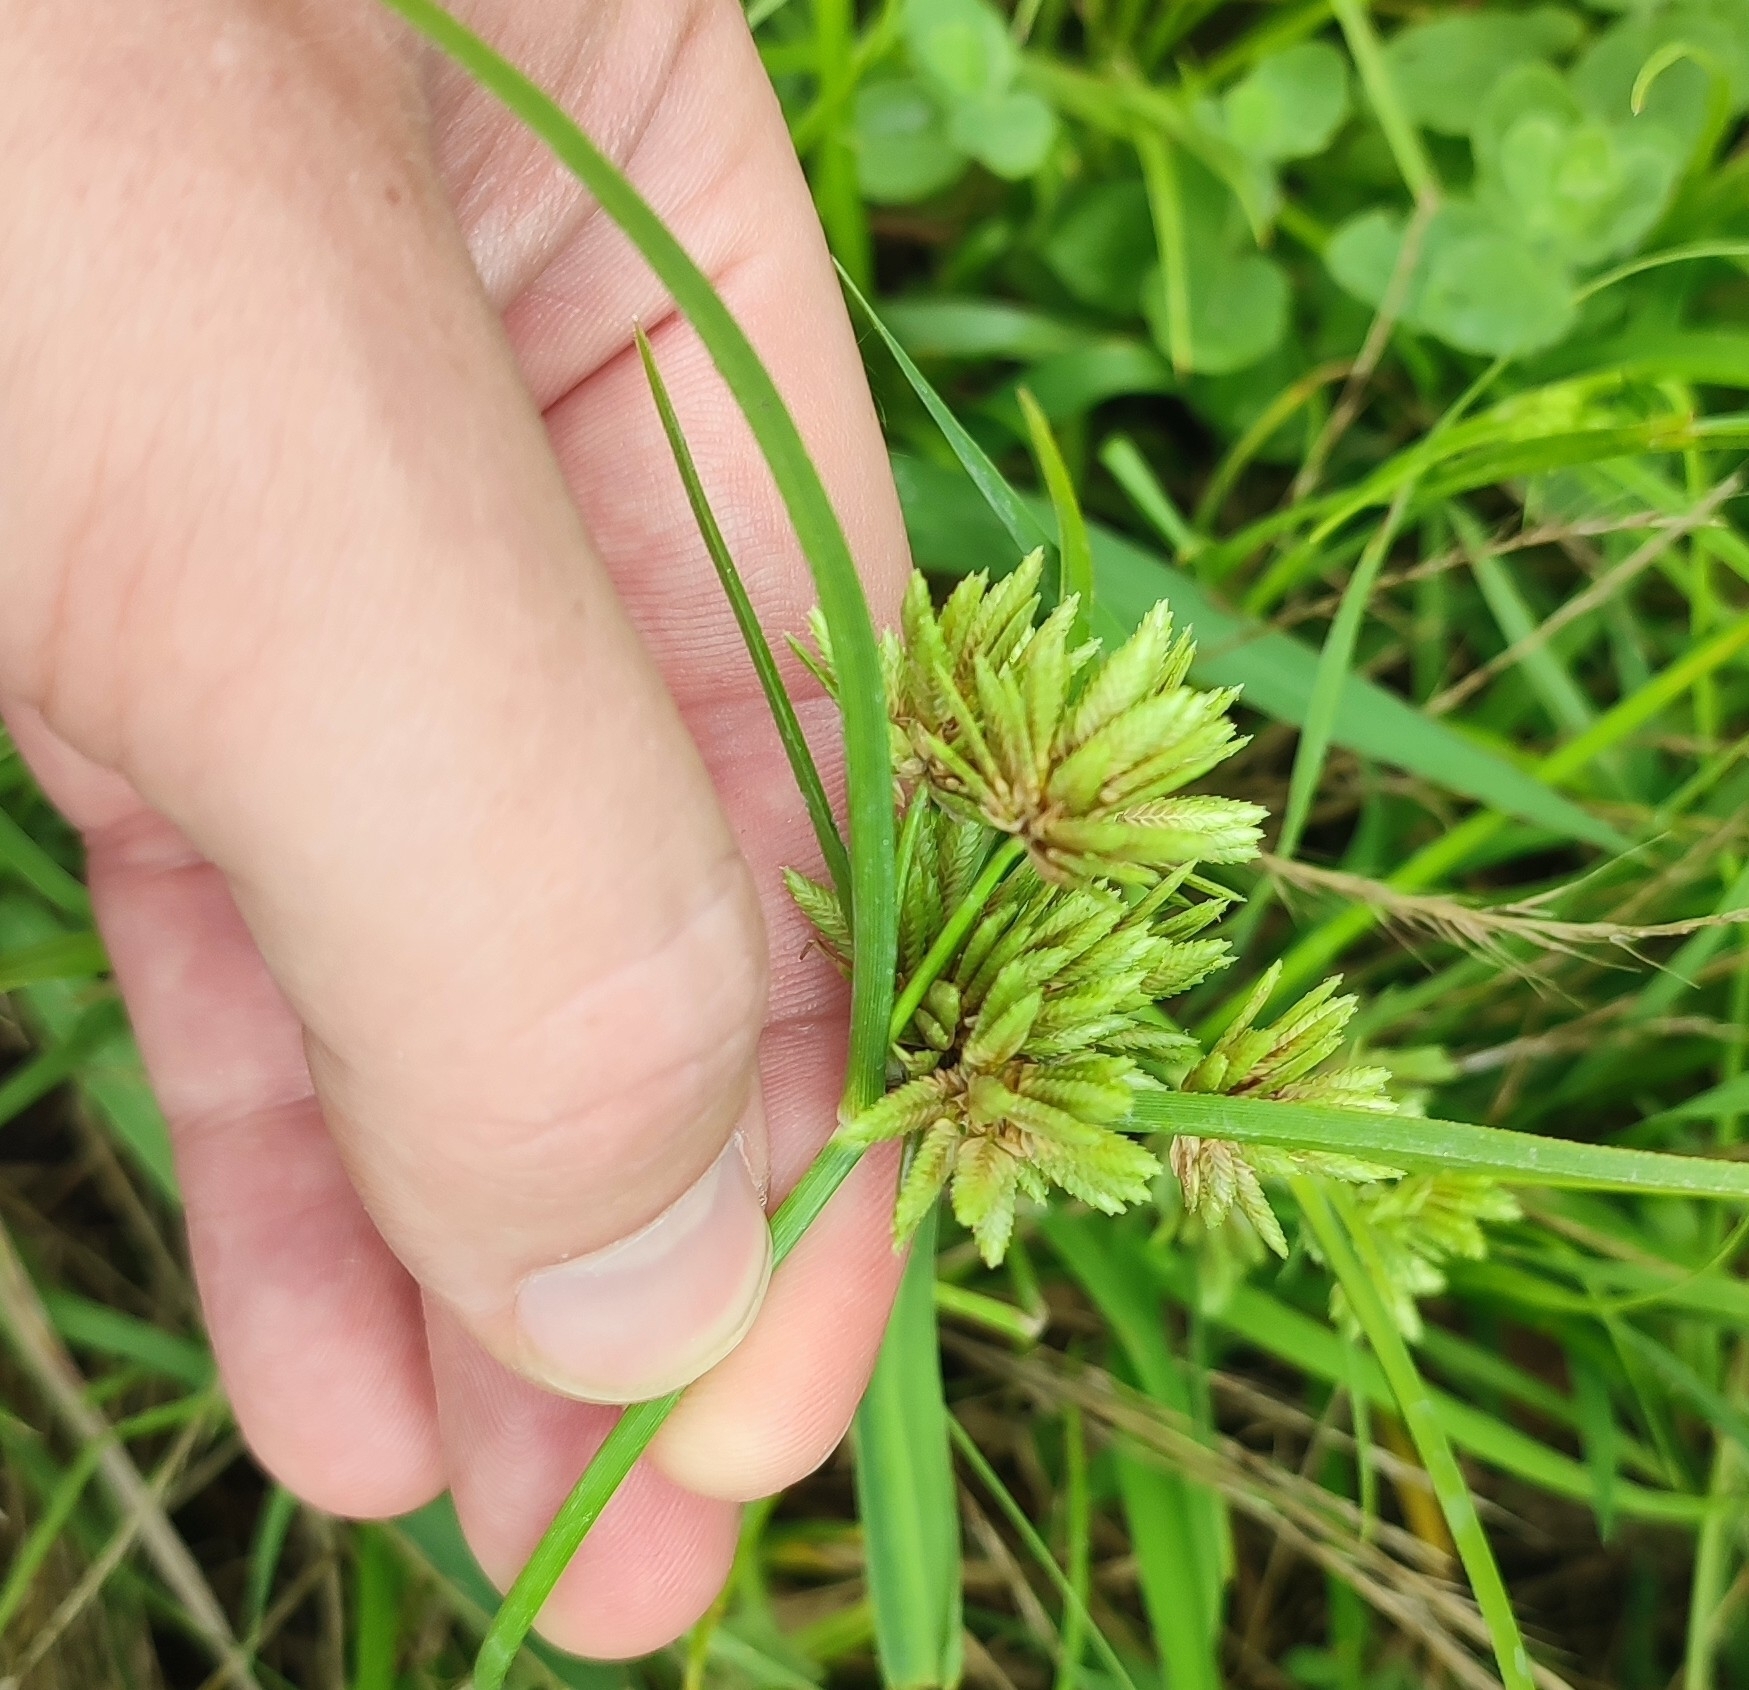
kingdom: Plantae
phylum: Tracheophyta
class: Liliopsida
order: Poales
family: Cyperaceae
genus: Cyperus
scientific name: Cyperus eragrostis
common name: Tall flatsedge
